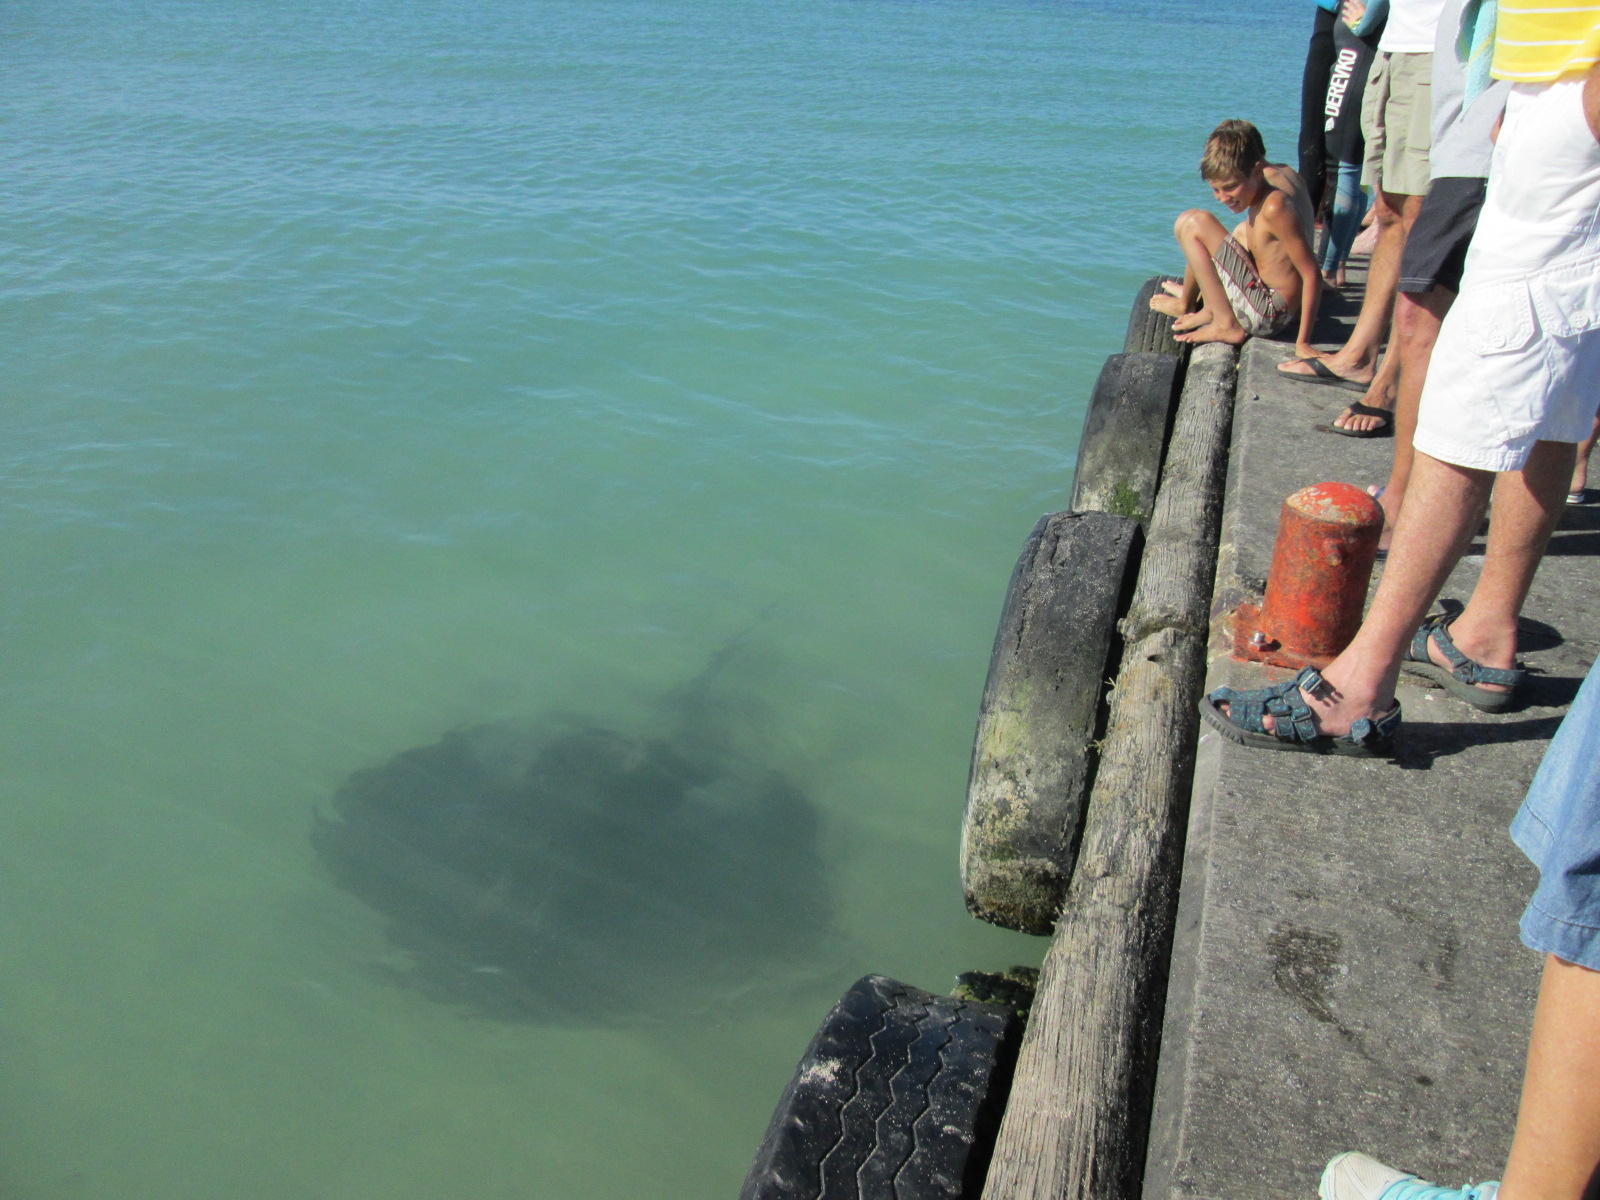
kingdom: Animalia
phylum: Chordata
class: Elasmobranchii
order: Myliobatiformes
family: Dasyatidae
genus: Bathytoshia
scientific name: Bathytoshia brevicaudata
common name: Short-tail stingray
